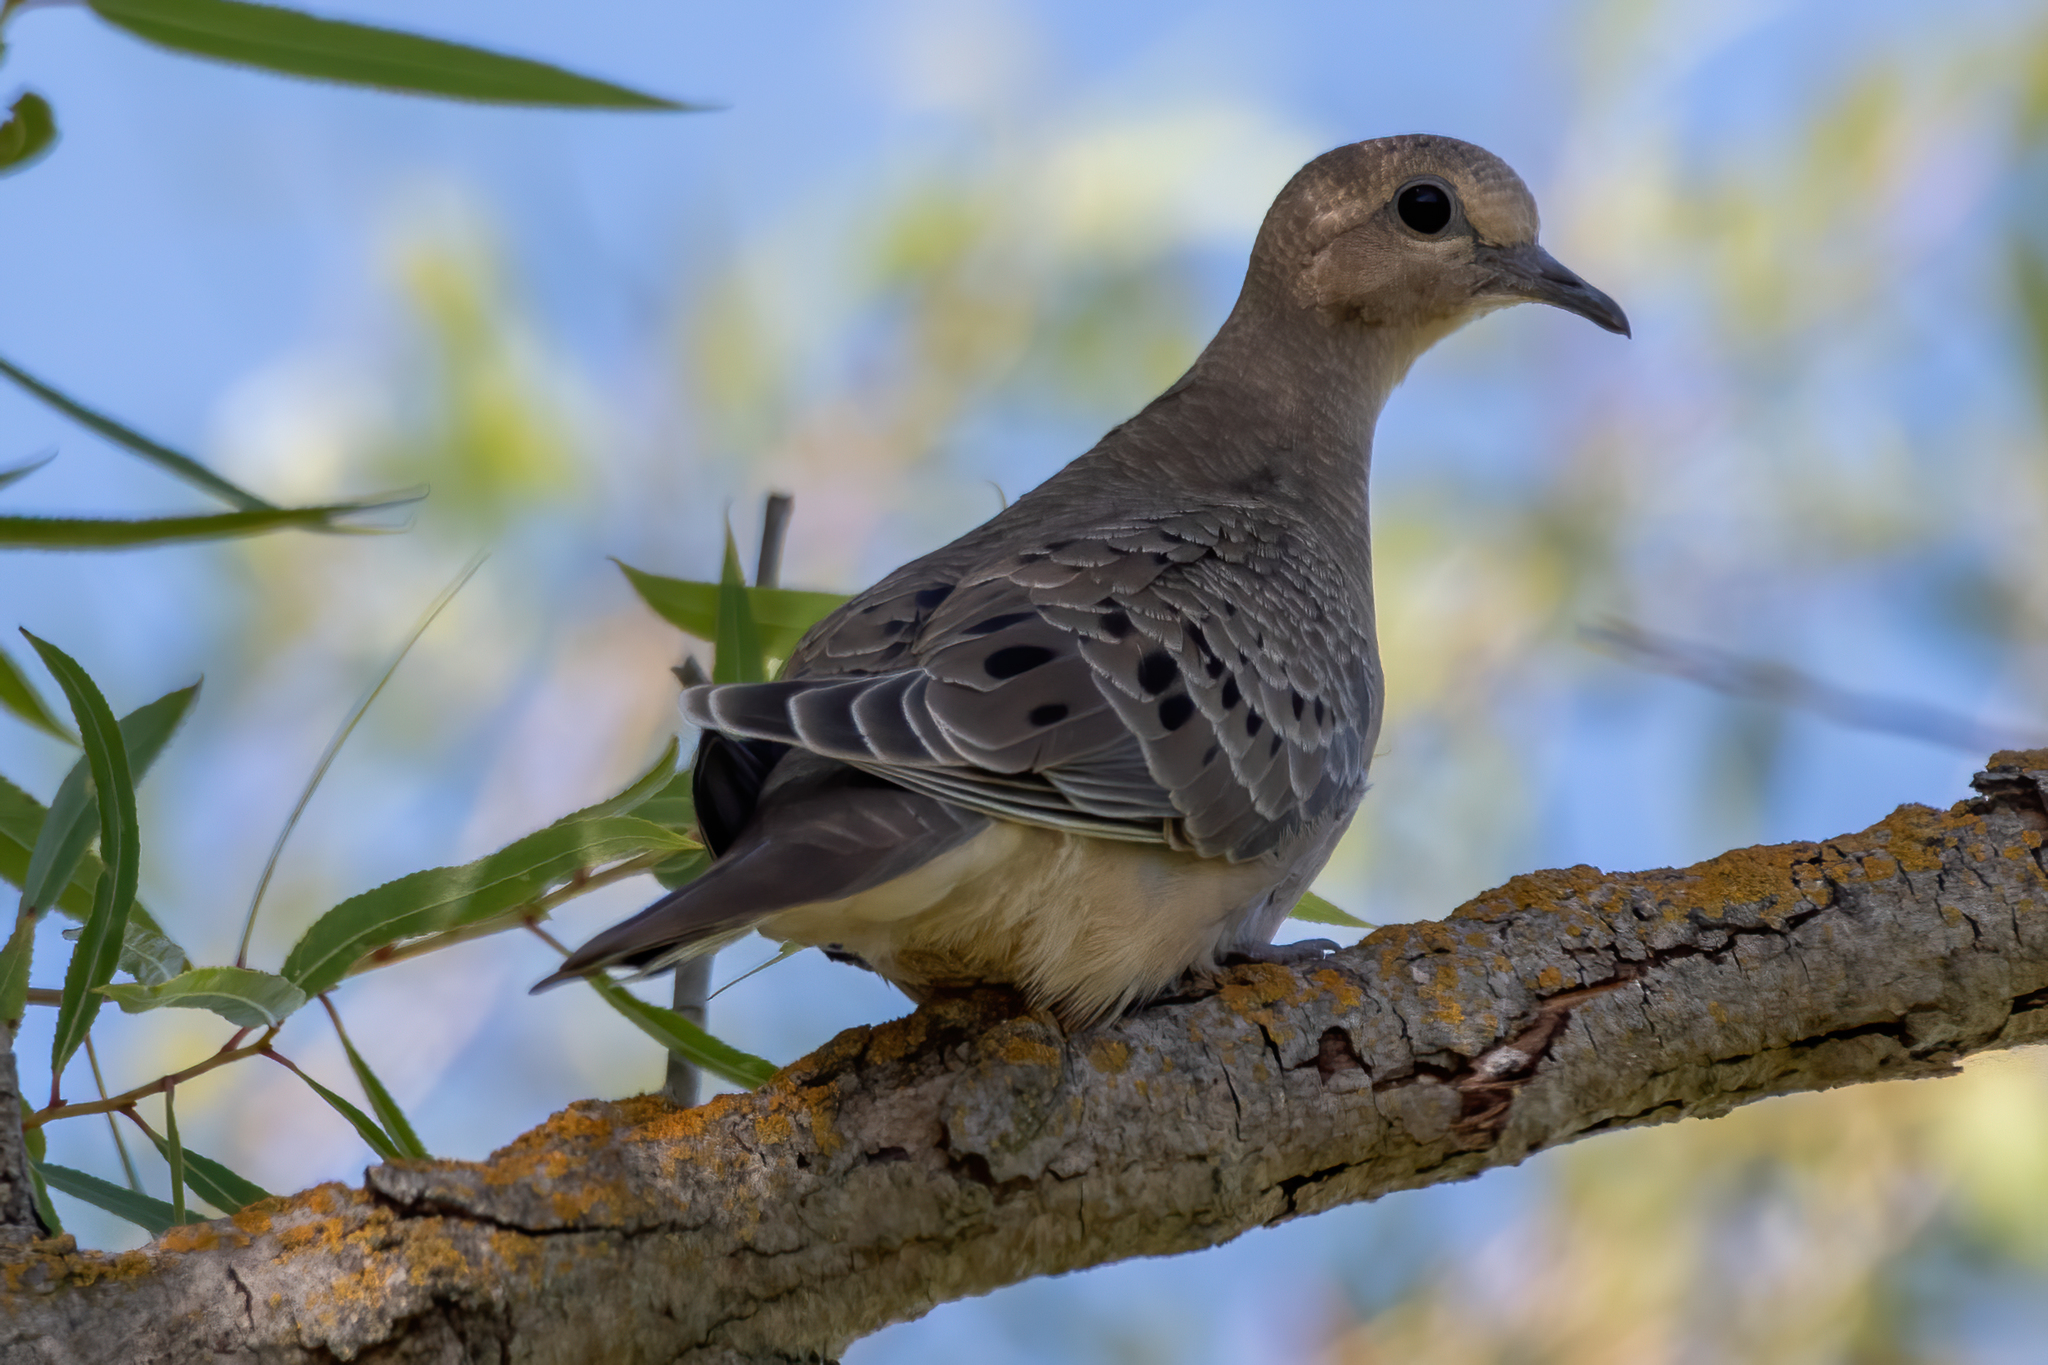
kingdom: Animalia
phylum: Chordata
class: Aves
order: Columbiformes
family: Columbidae
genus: Zenaida
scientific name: Zenaida macroura
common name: Mourning dove
